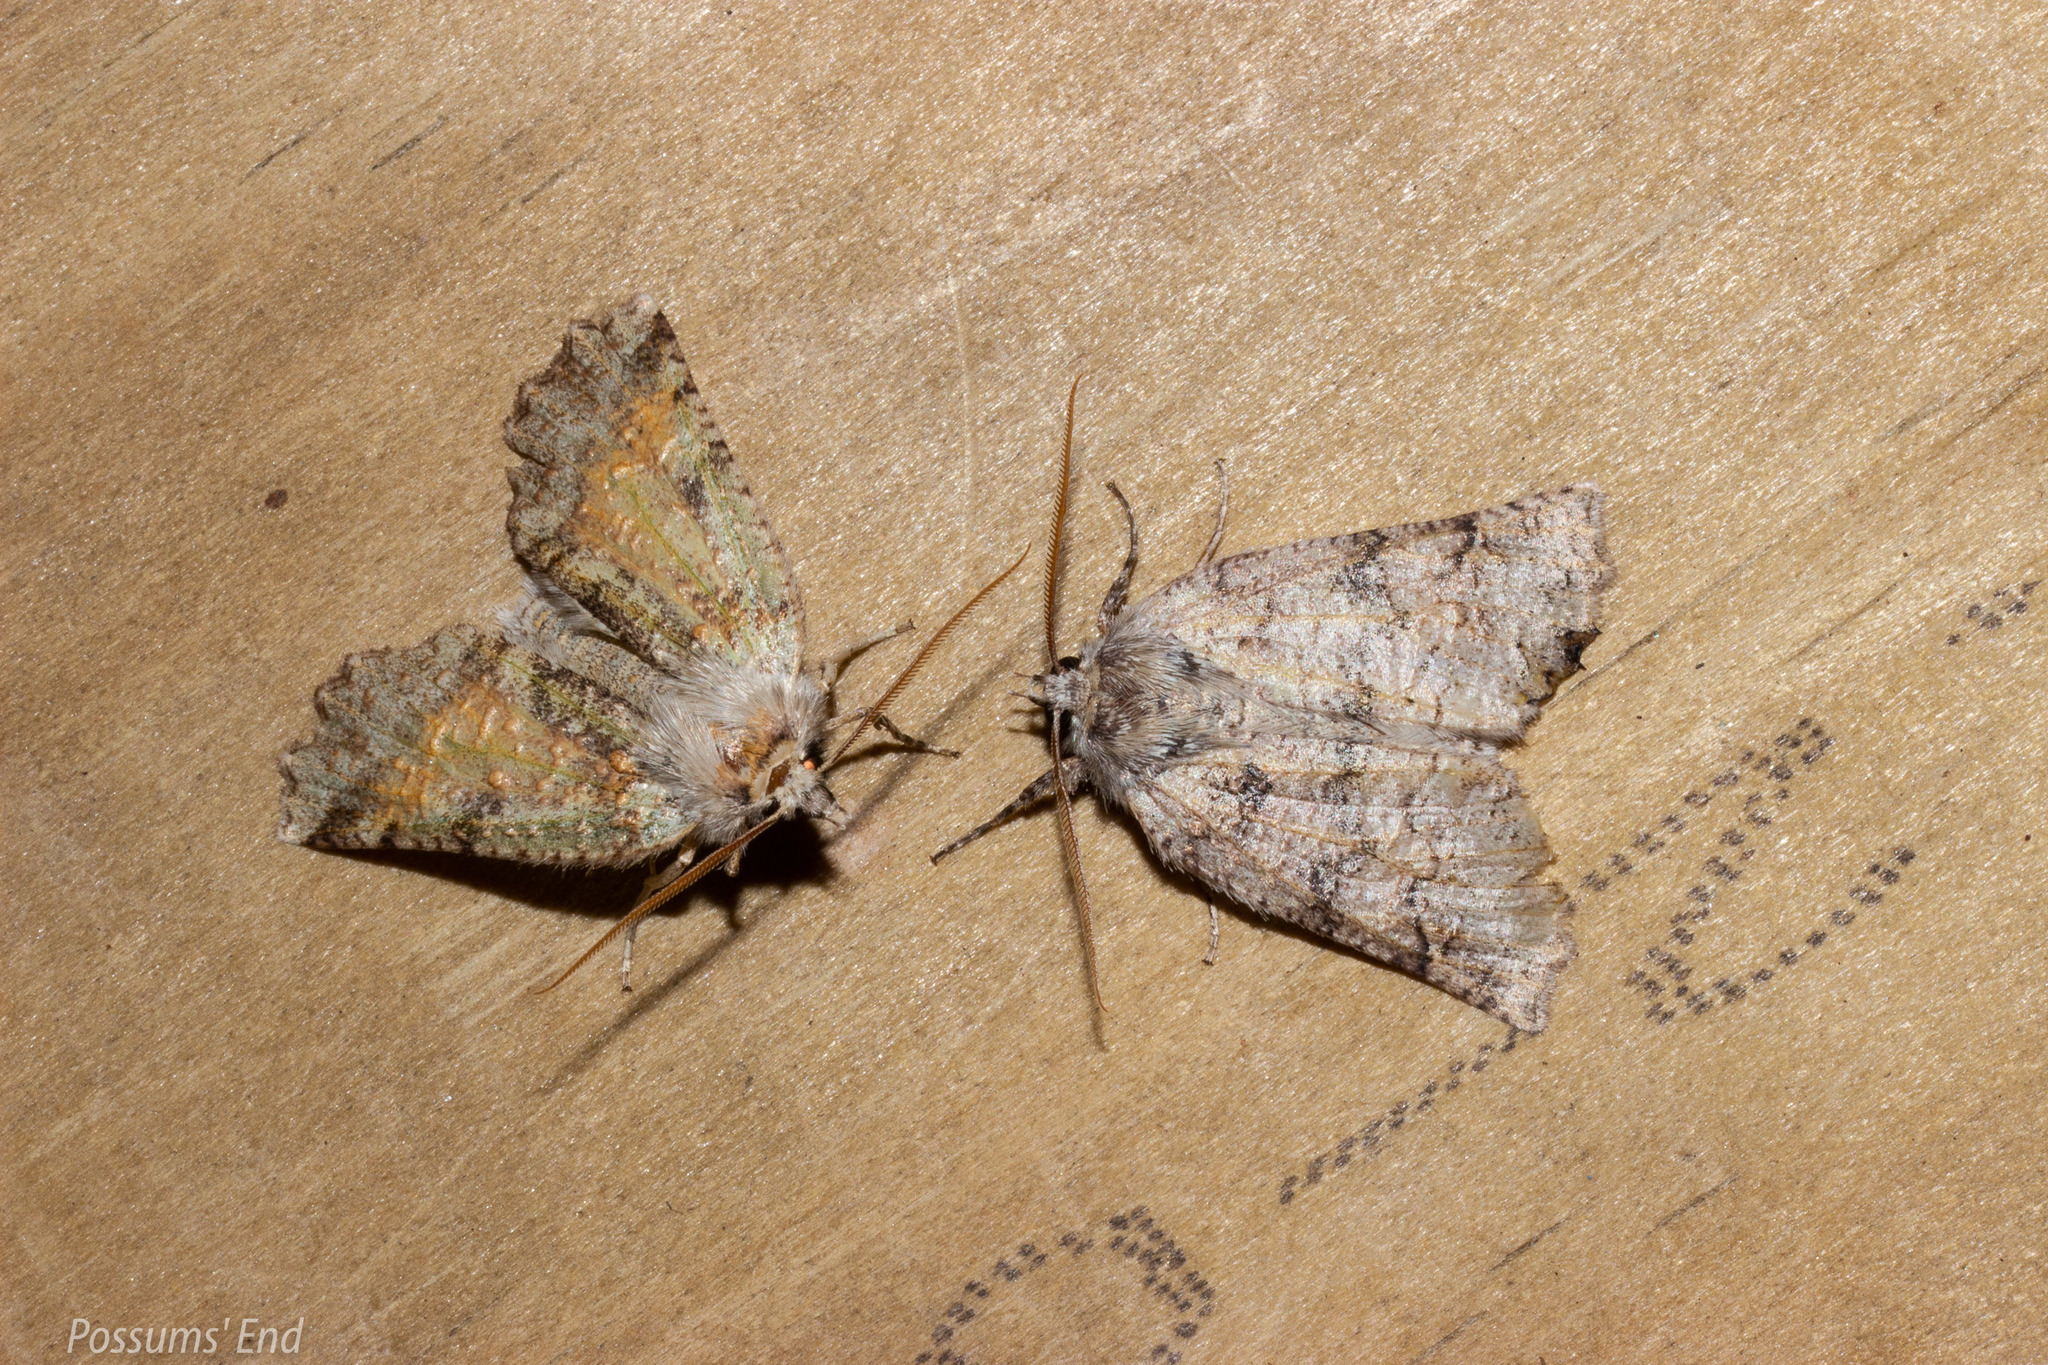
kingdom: Animalia
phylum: Arthropoda
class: Insecta
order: Lepidoptera
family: Geometridae
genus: Declana
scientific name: Declana floccosa
